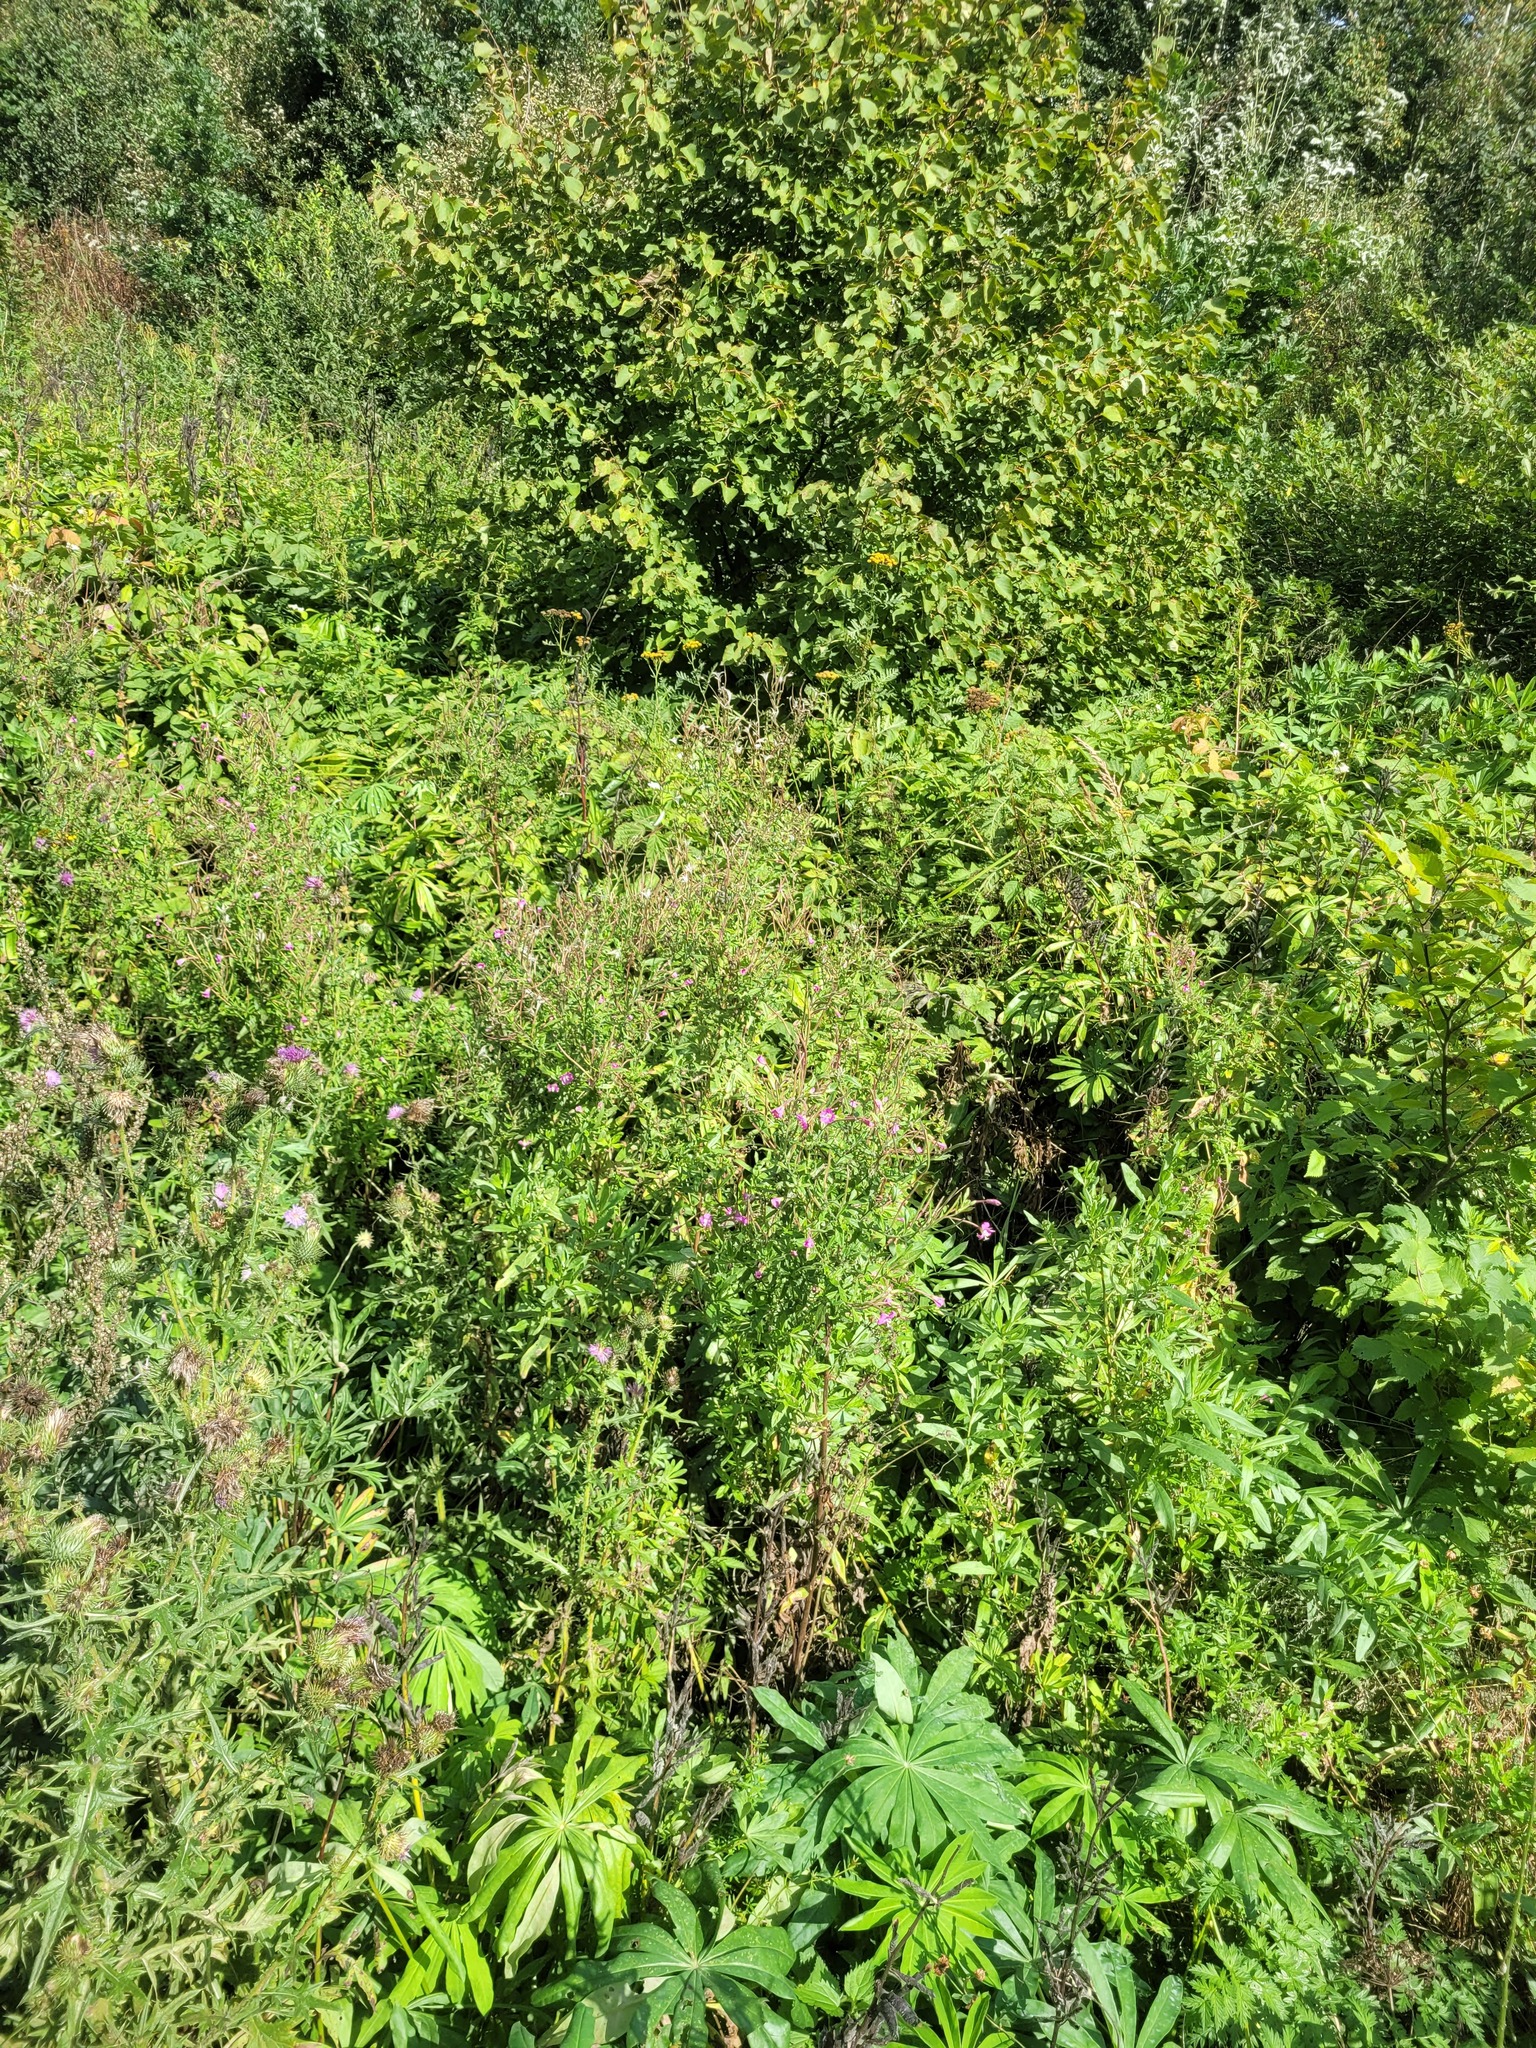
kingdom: Plantae
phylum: Tracheophyta
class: Magnoliopsida
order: Myrtales
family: Onagraceae
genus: Epilobium
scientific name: Epilobium hirsutum
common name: Great willowherb
